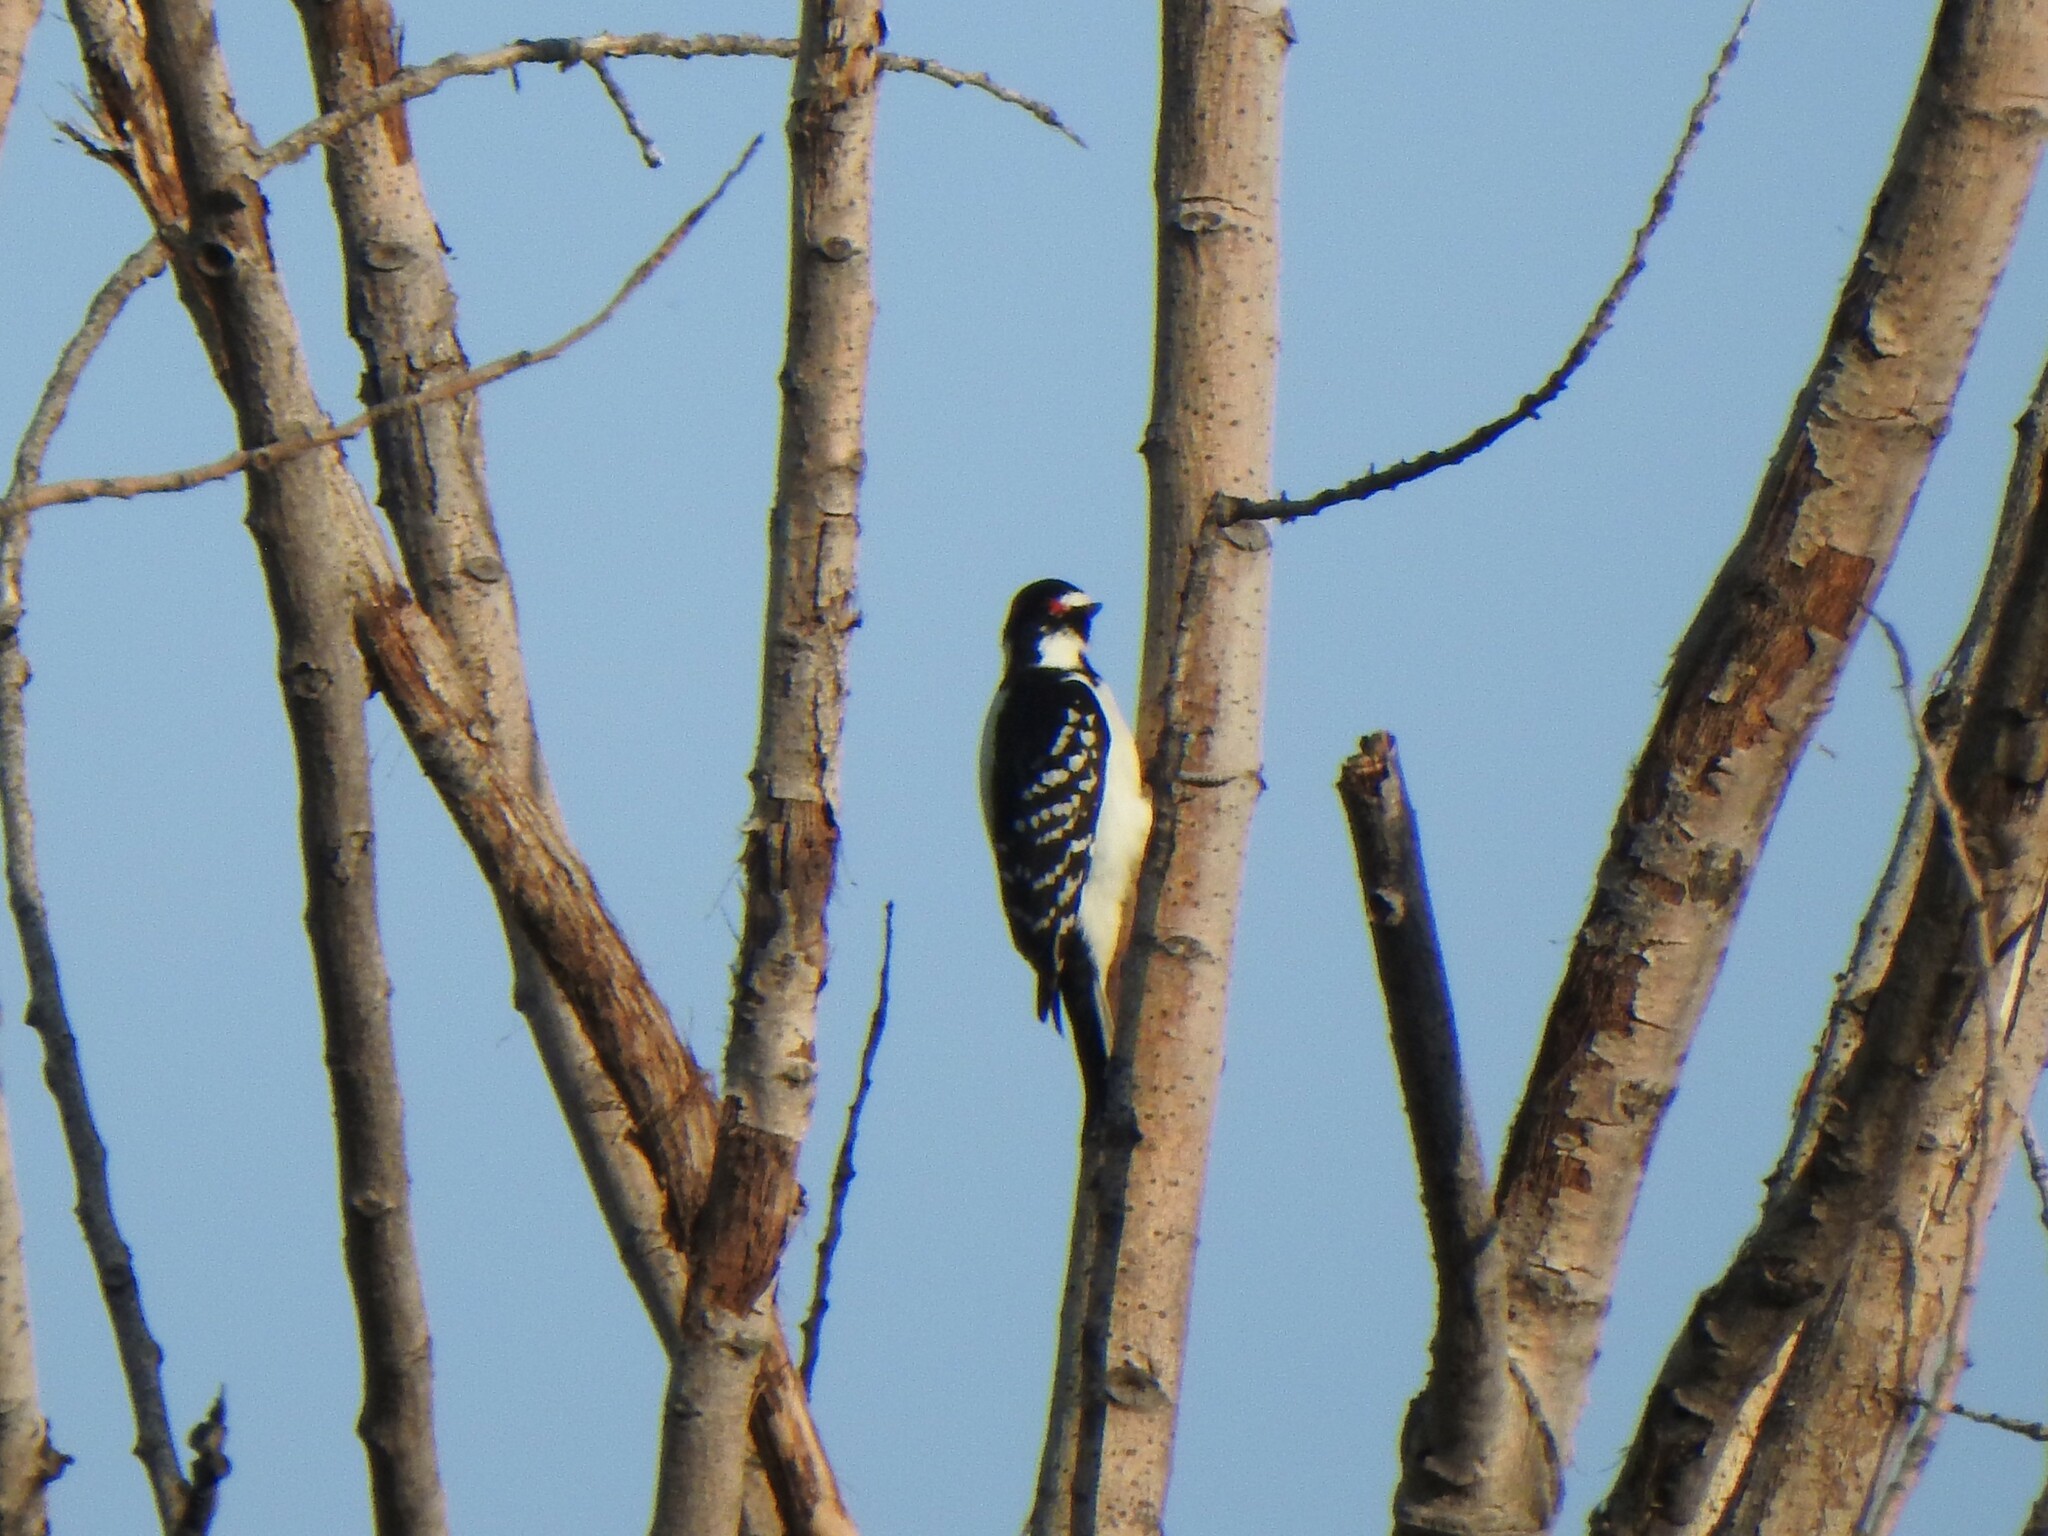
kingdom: Animalia
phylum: Chordata
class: Aves
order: Piciformes
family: Picidae
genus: Dryobates
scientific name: Dryobates pubescens
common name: Downy woodpecker
